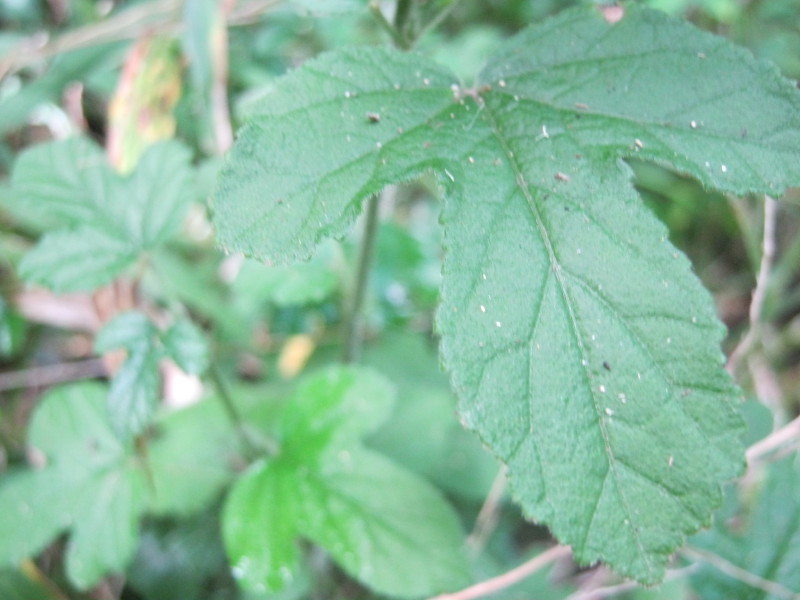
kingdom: Plantae
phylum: Tracheophyta
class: Magnoliopsida
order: Malvales
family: Malvaceae
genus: Hibiscus
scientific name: Hibiscus pedunculatus
